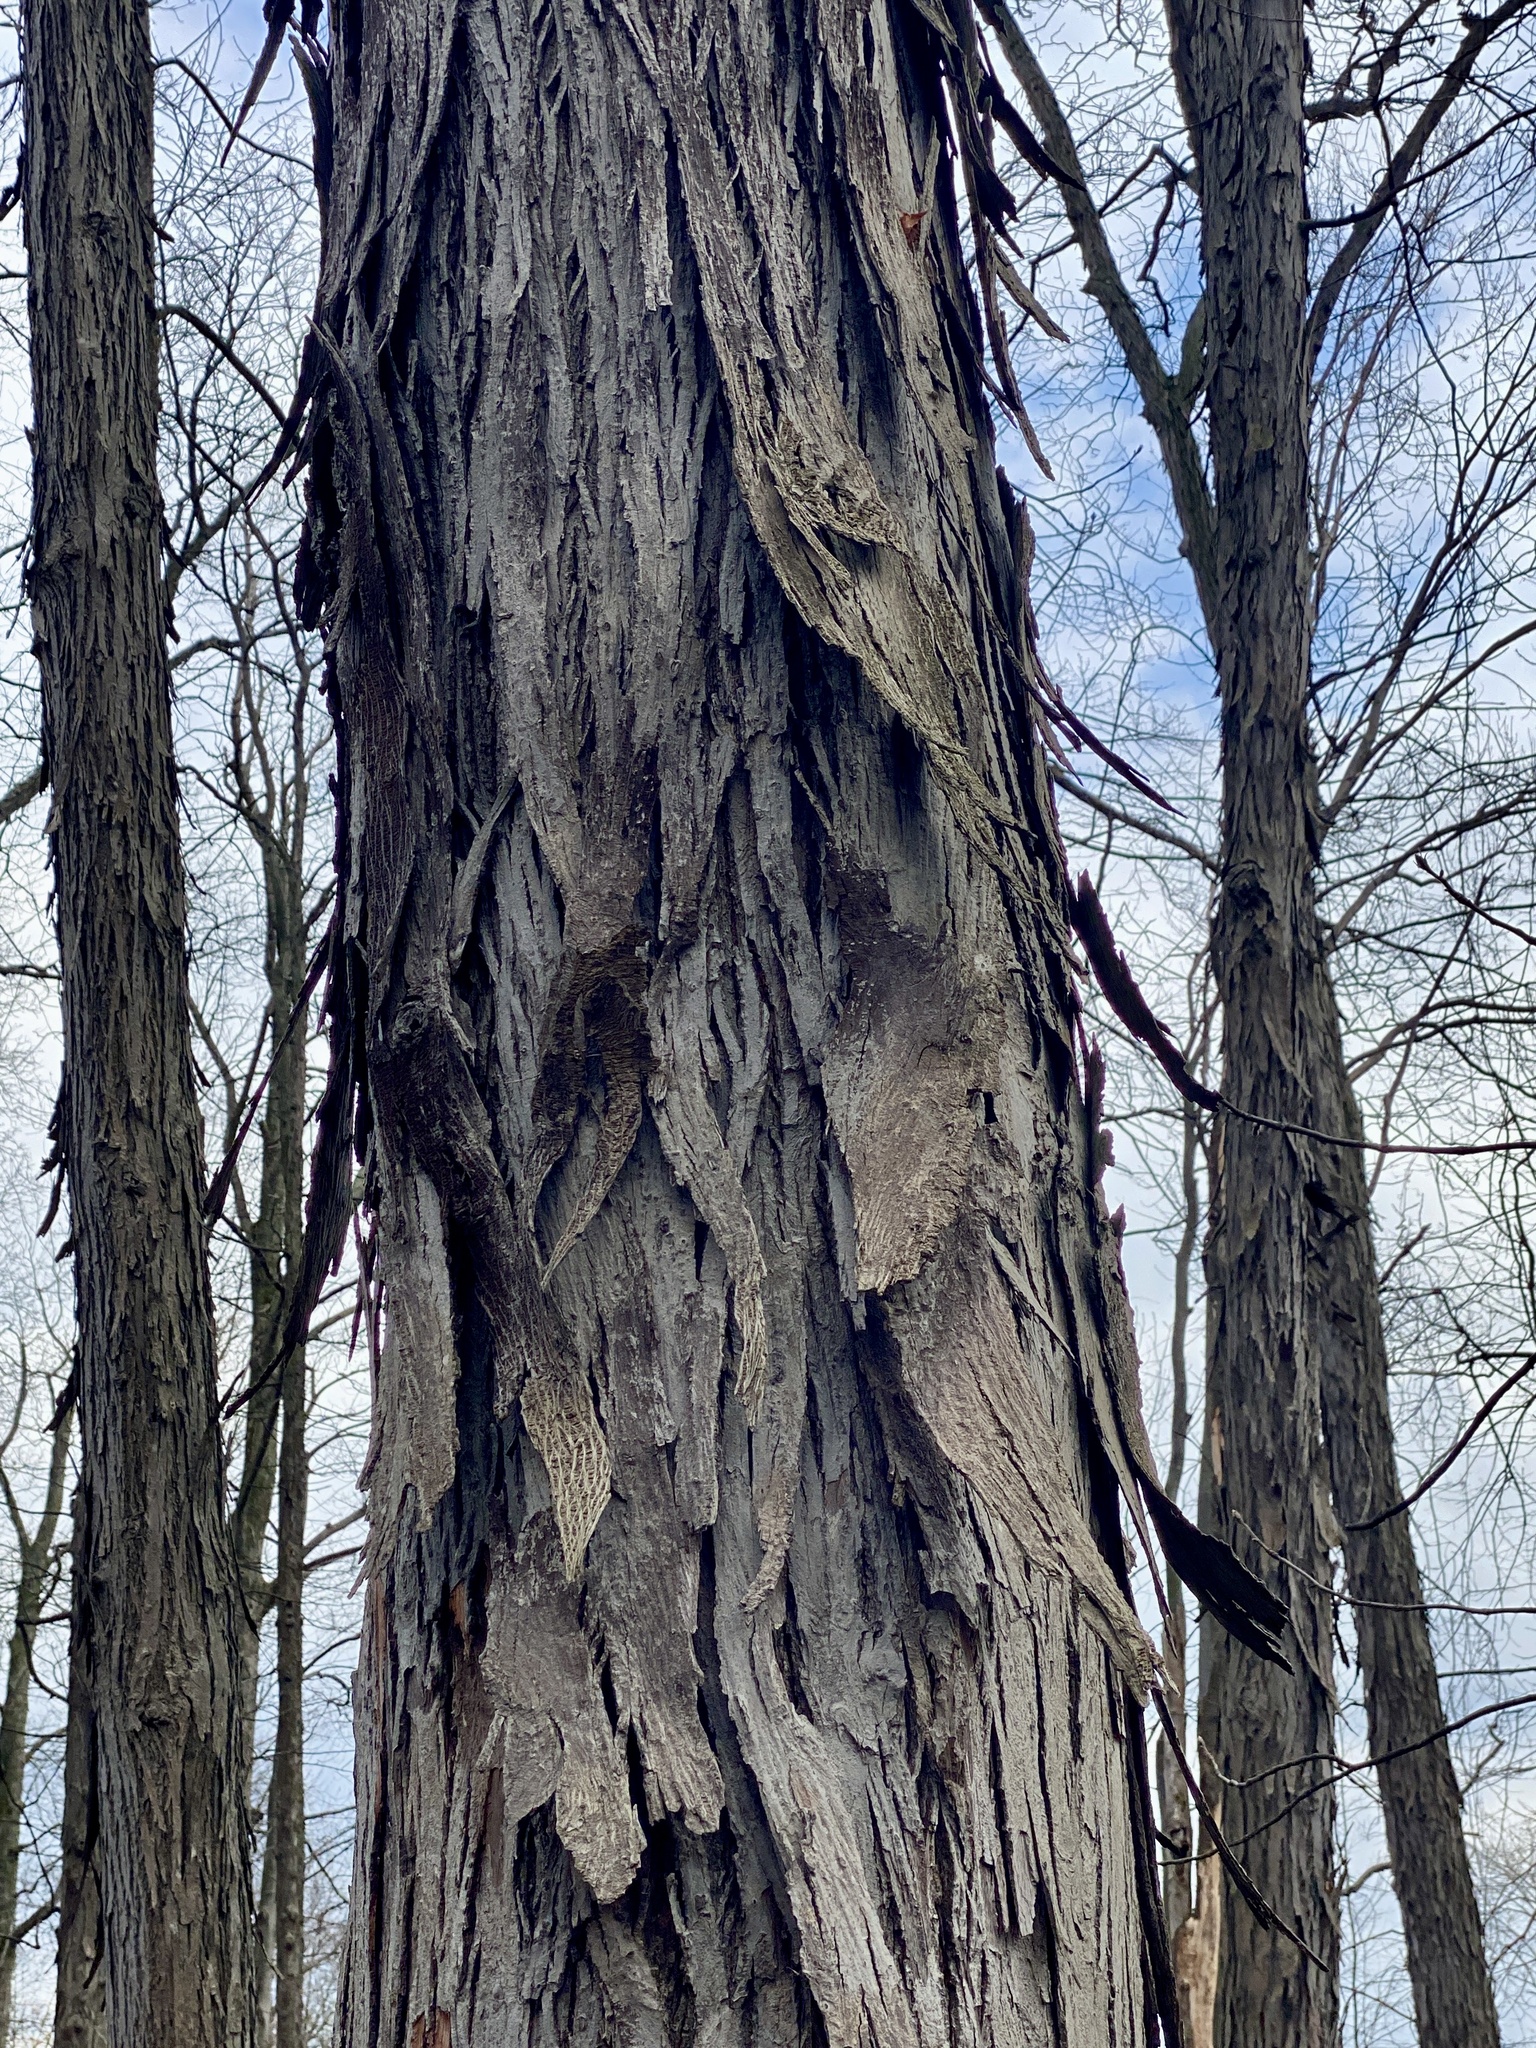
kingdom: Plantae
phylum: Tracheophyta
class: Magnoliopsida
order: Fagales
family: Juglandaceae
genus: Carya
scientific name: Carya ovata
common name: Shagbark hickory
